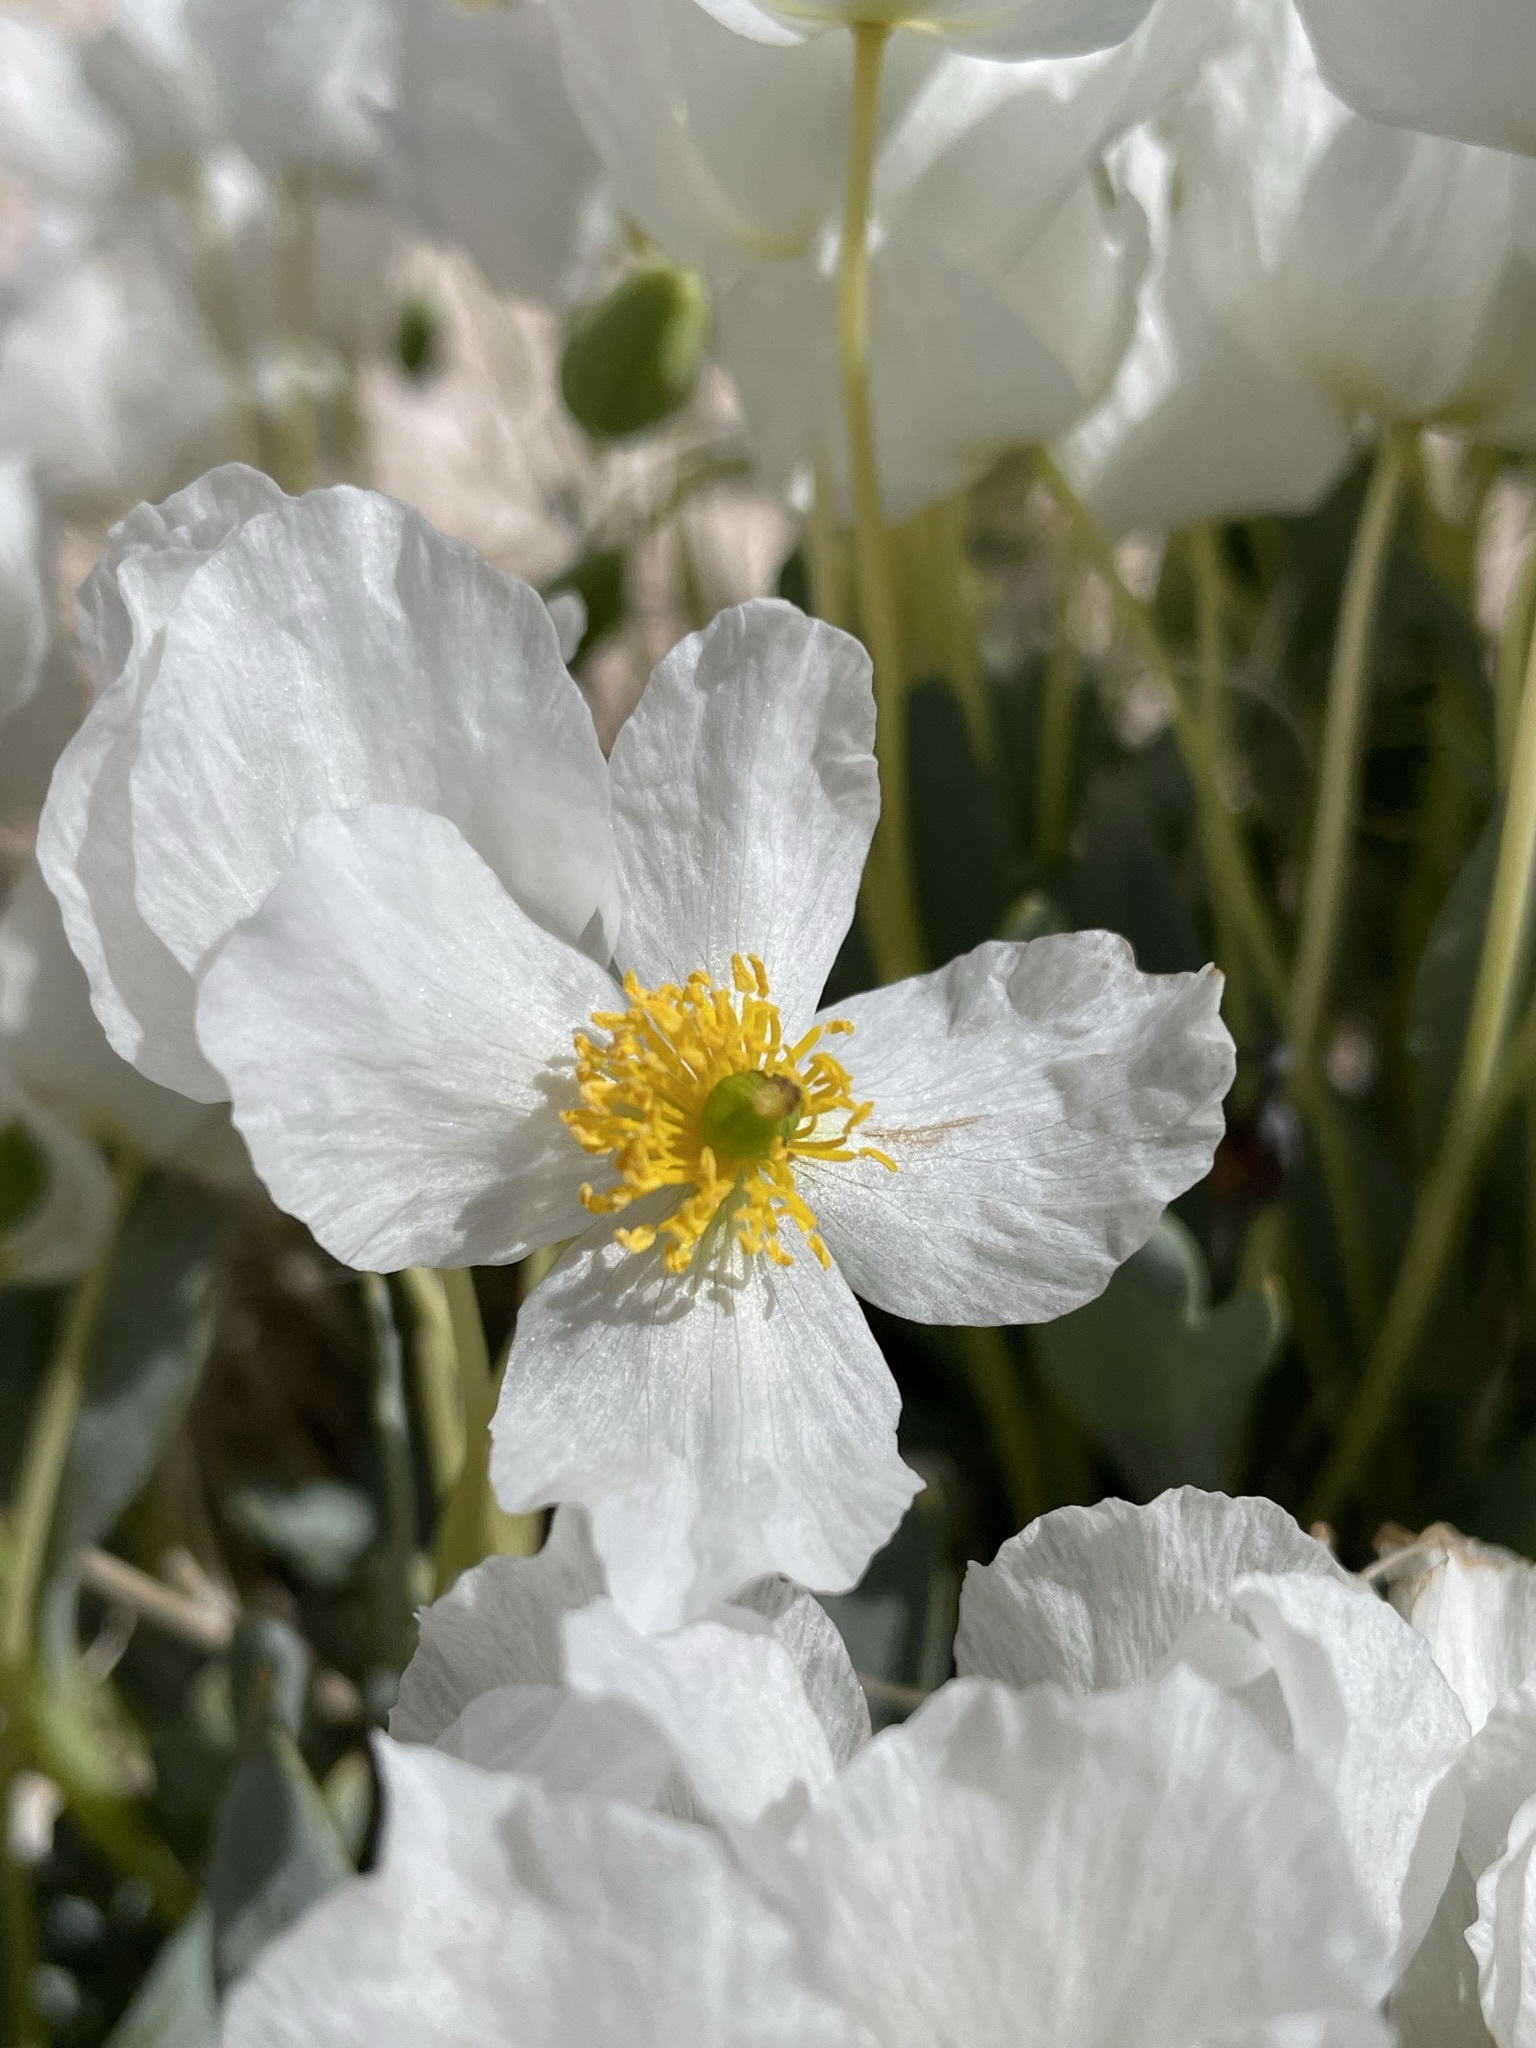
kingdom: Plantae
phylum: Tracheophyta
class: Magnoliopsida
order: Ranunculales
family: Papaveraceae
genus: Arctomecon
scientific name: Arctomecon humilis
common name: Dwarf bear-poppy
